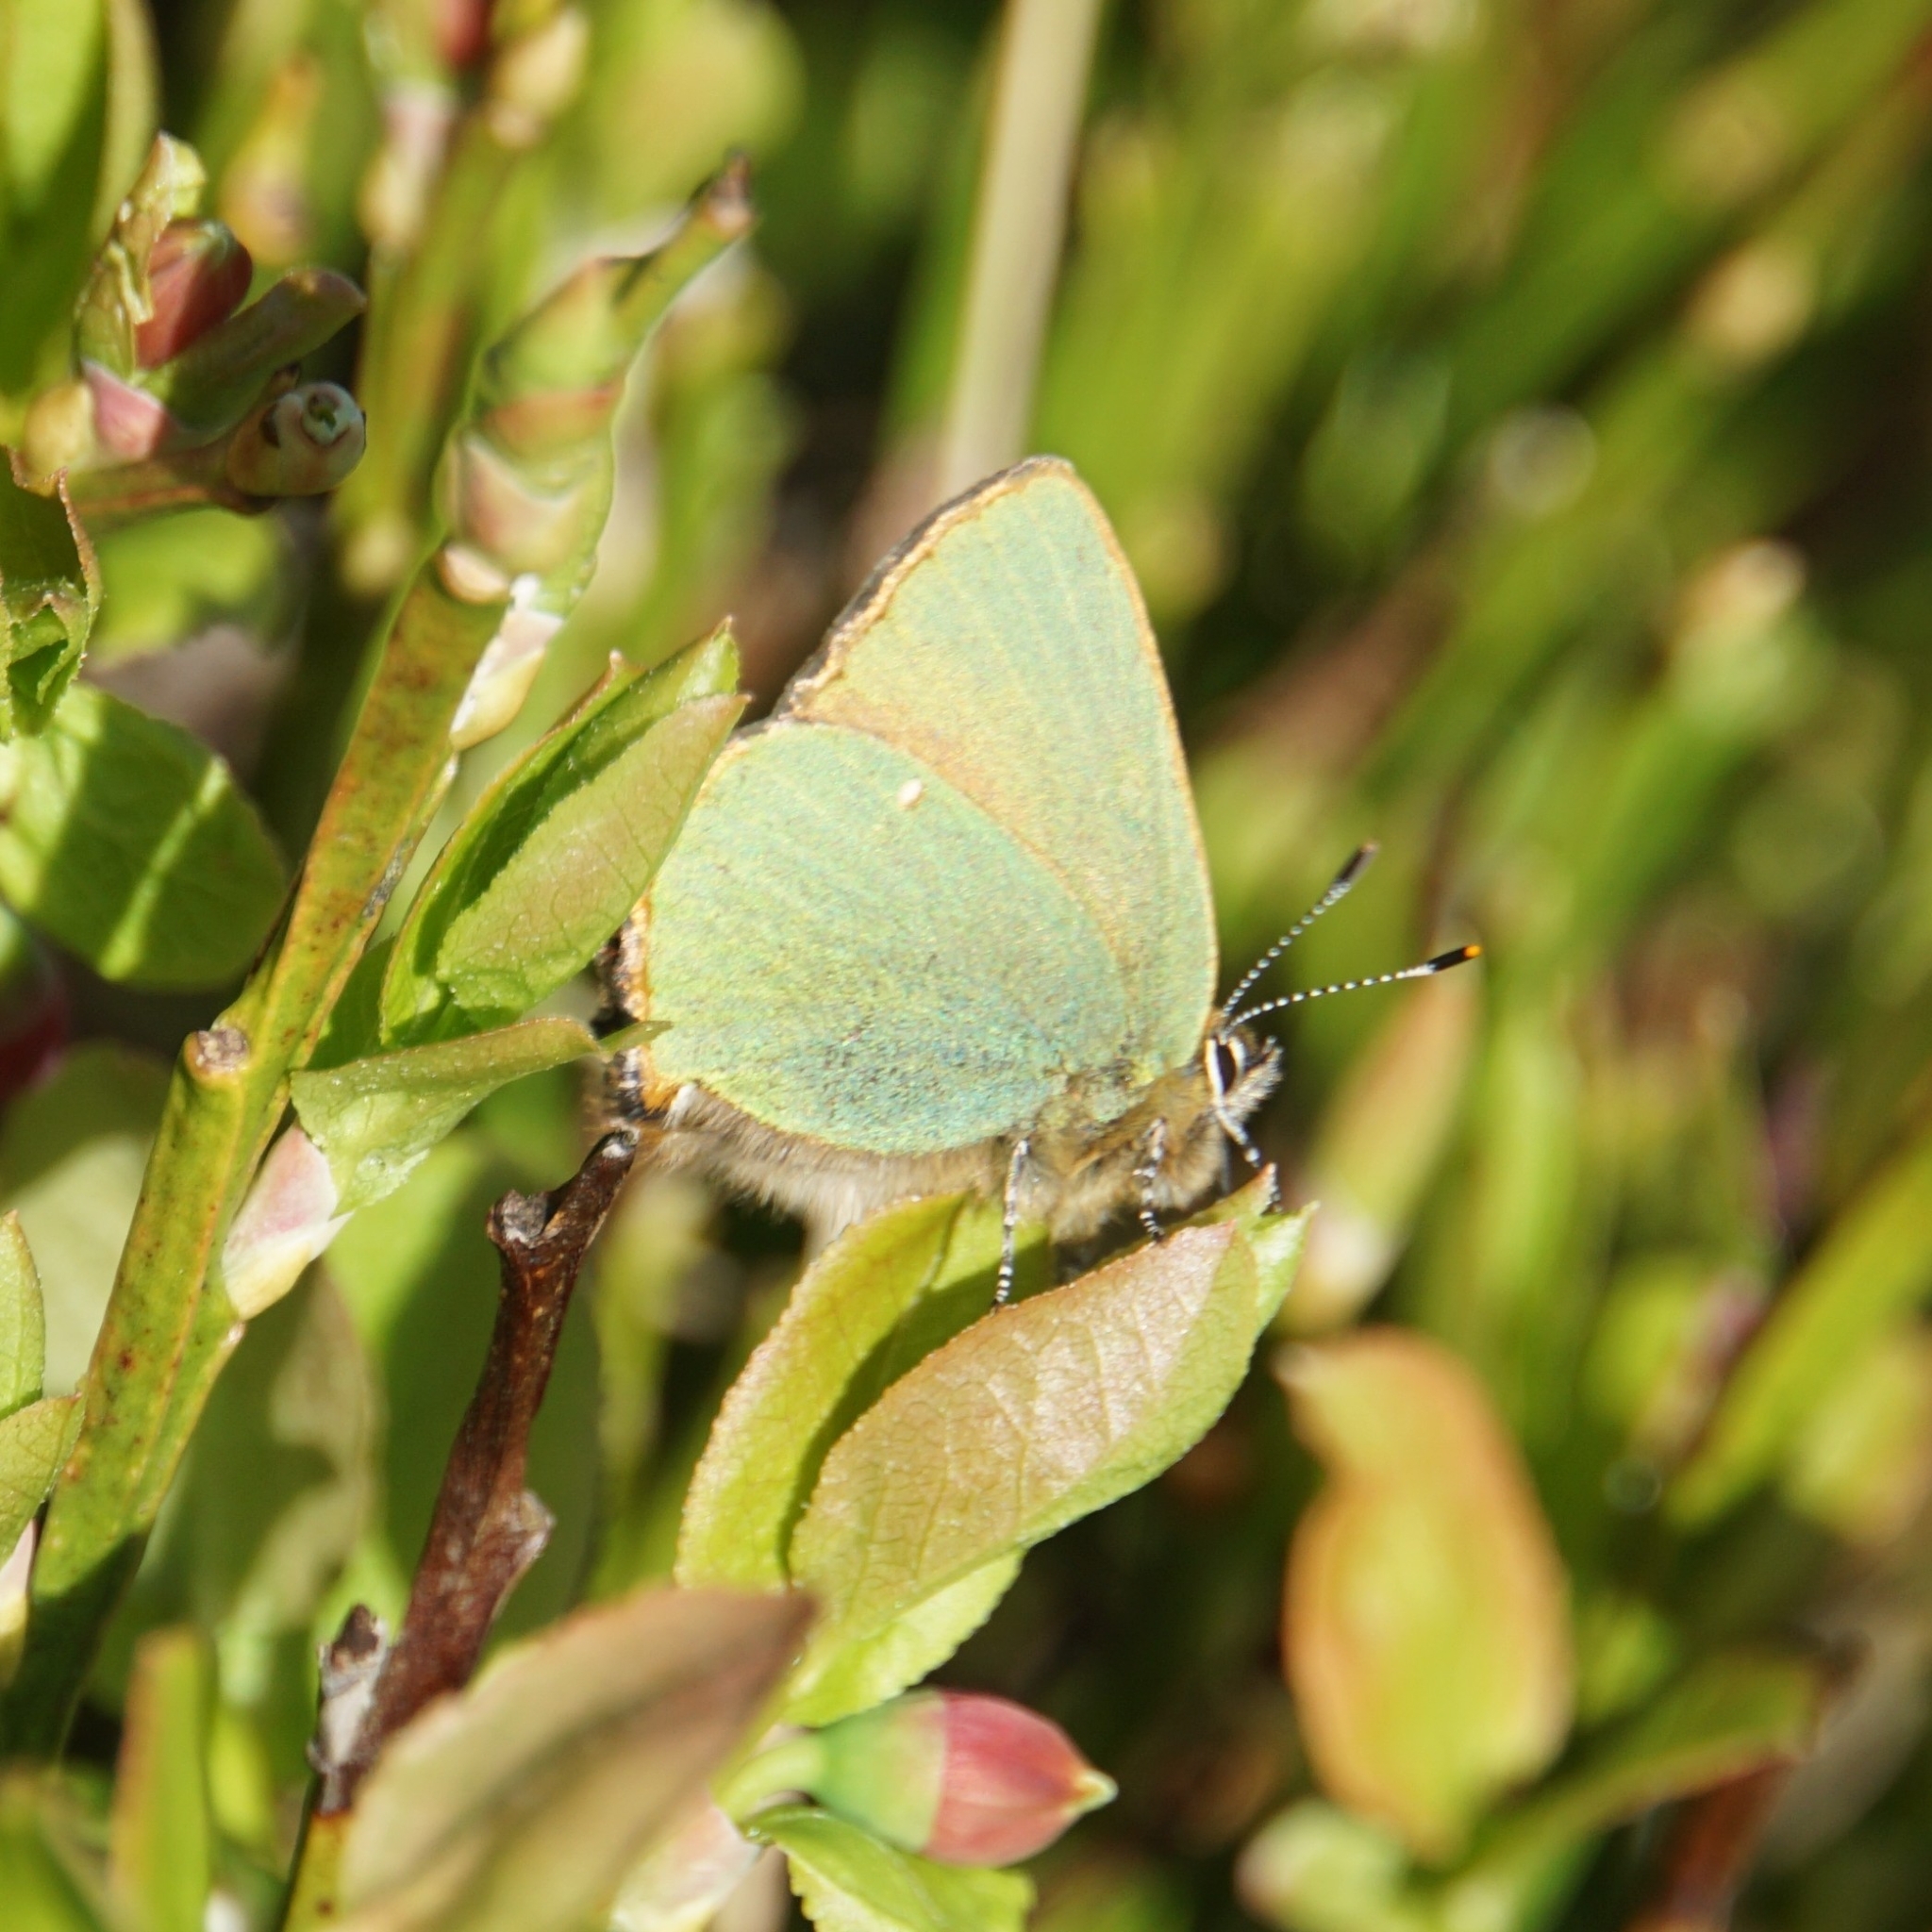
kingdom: Animalia
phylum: Arthropoda
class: Insecta
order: Lepidoptera
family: Lycaenidae
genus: Callophrys
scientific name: Callophrys rubi
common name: Green hairstreak
